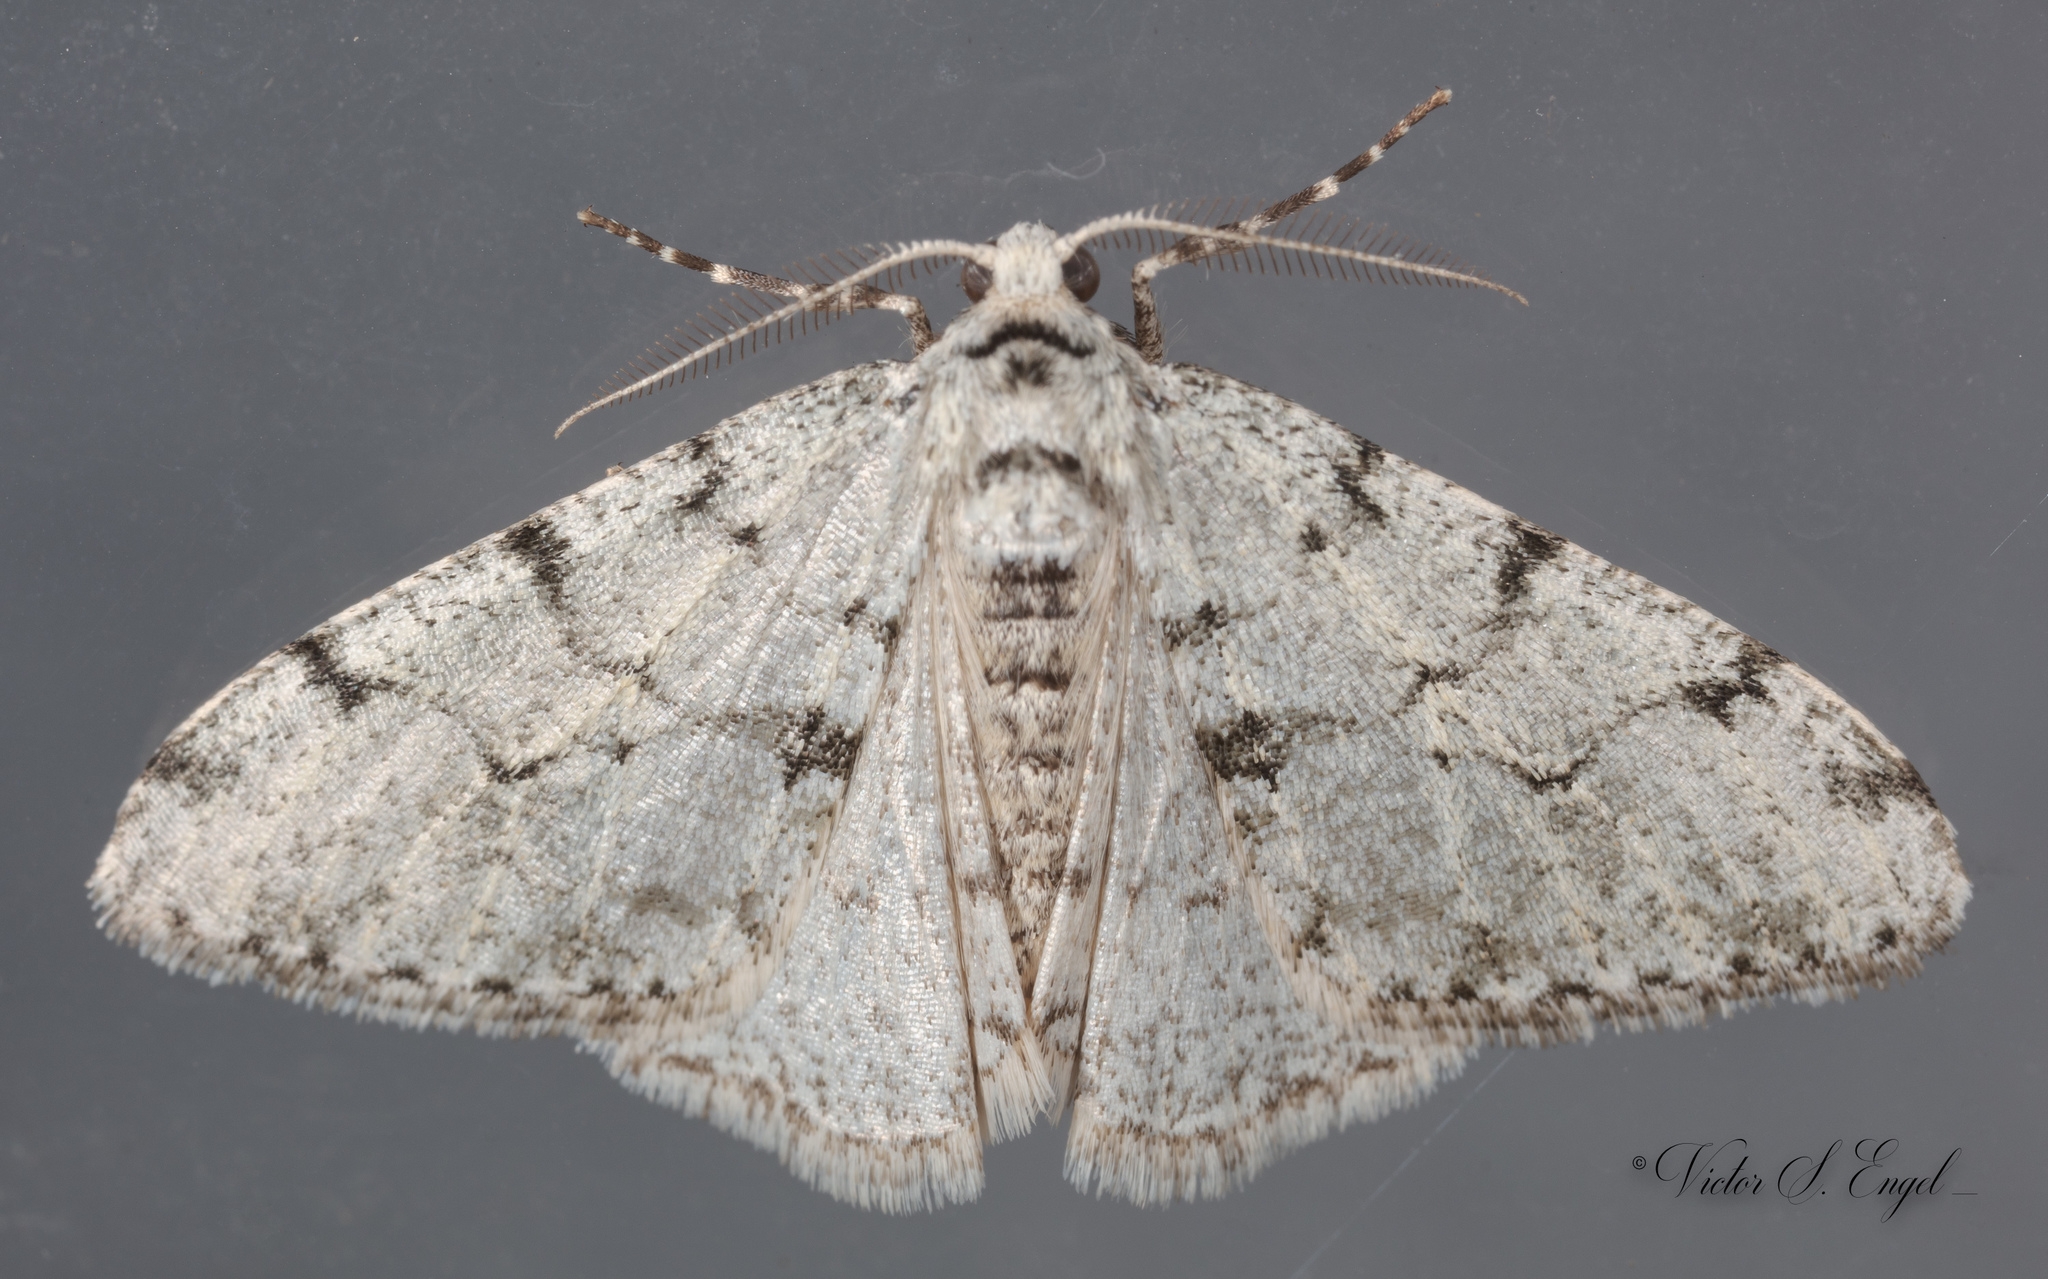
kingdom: Animalia
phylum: Arthropoda
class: Insecta
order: Lepidoptera
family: Geometridae
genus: Phigalia
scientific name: Phigalia strigataria
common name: Small phigalia
